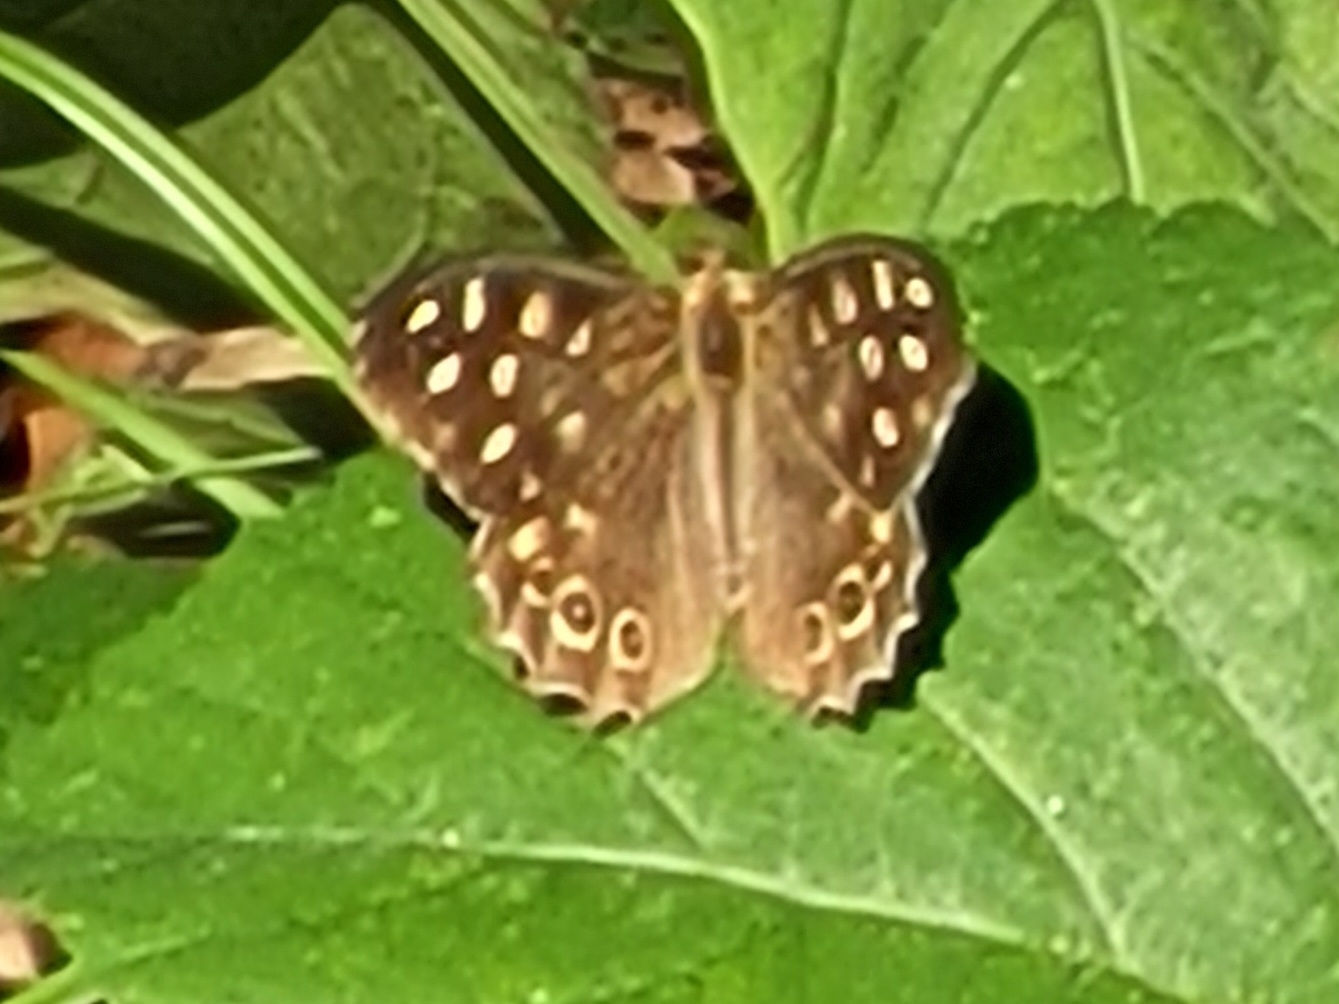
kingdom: Animalia
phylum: Arthropoda
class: Insecta
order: Lepidoptera
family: Nymphalidae
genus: Pararge
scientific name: Pararge aegeria
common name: Speckled wood
